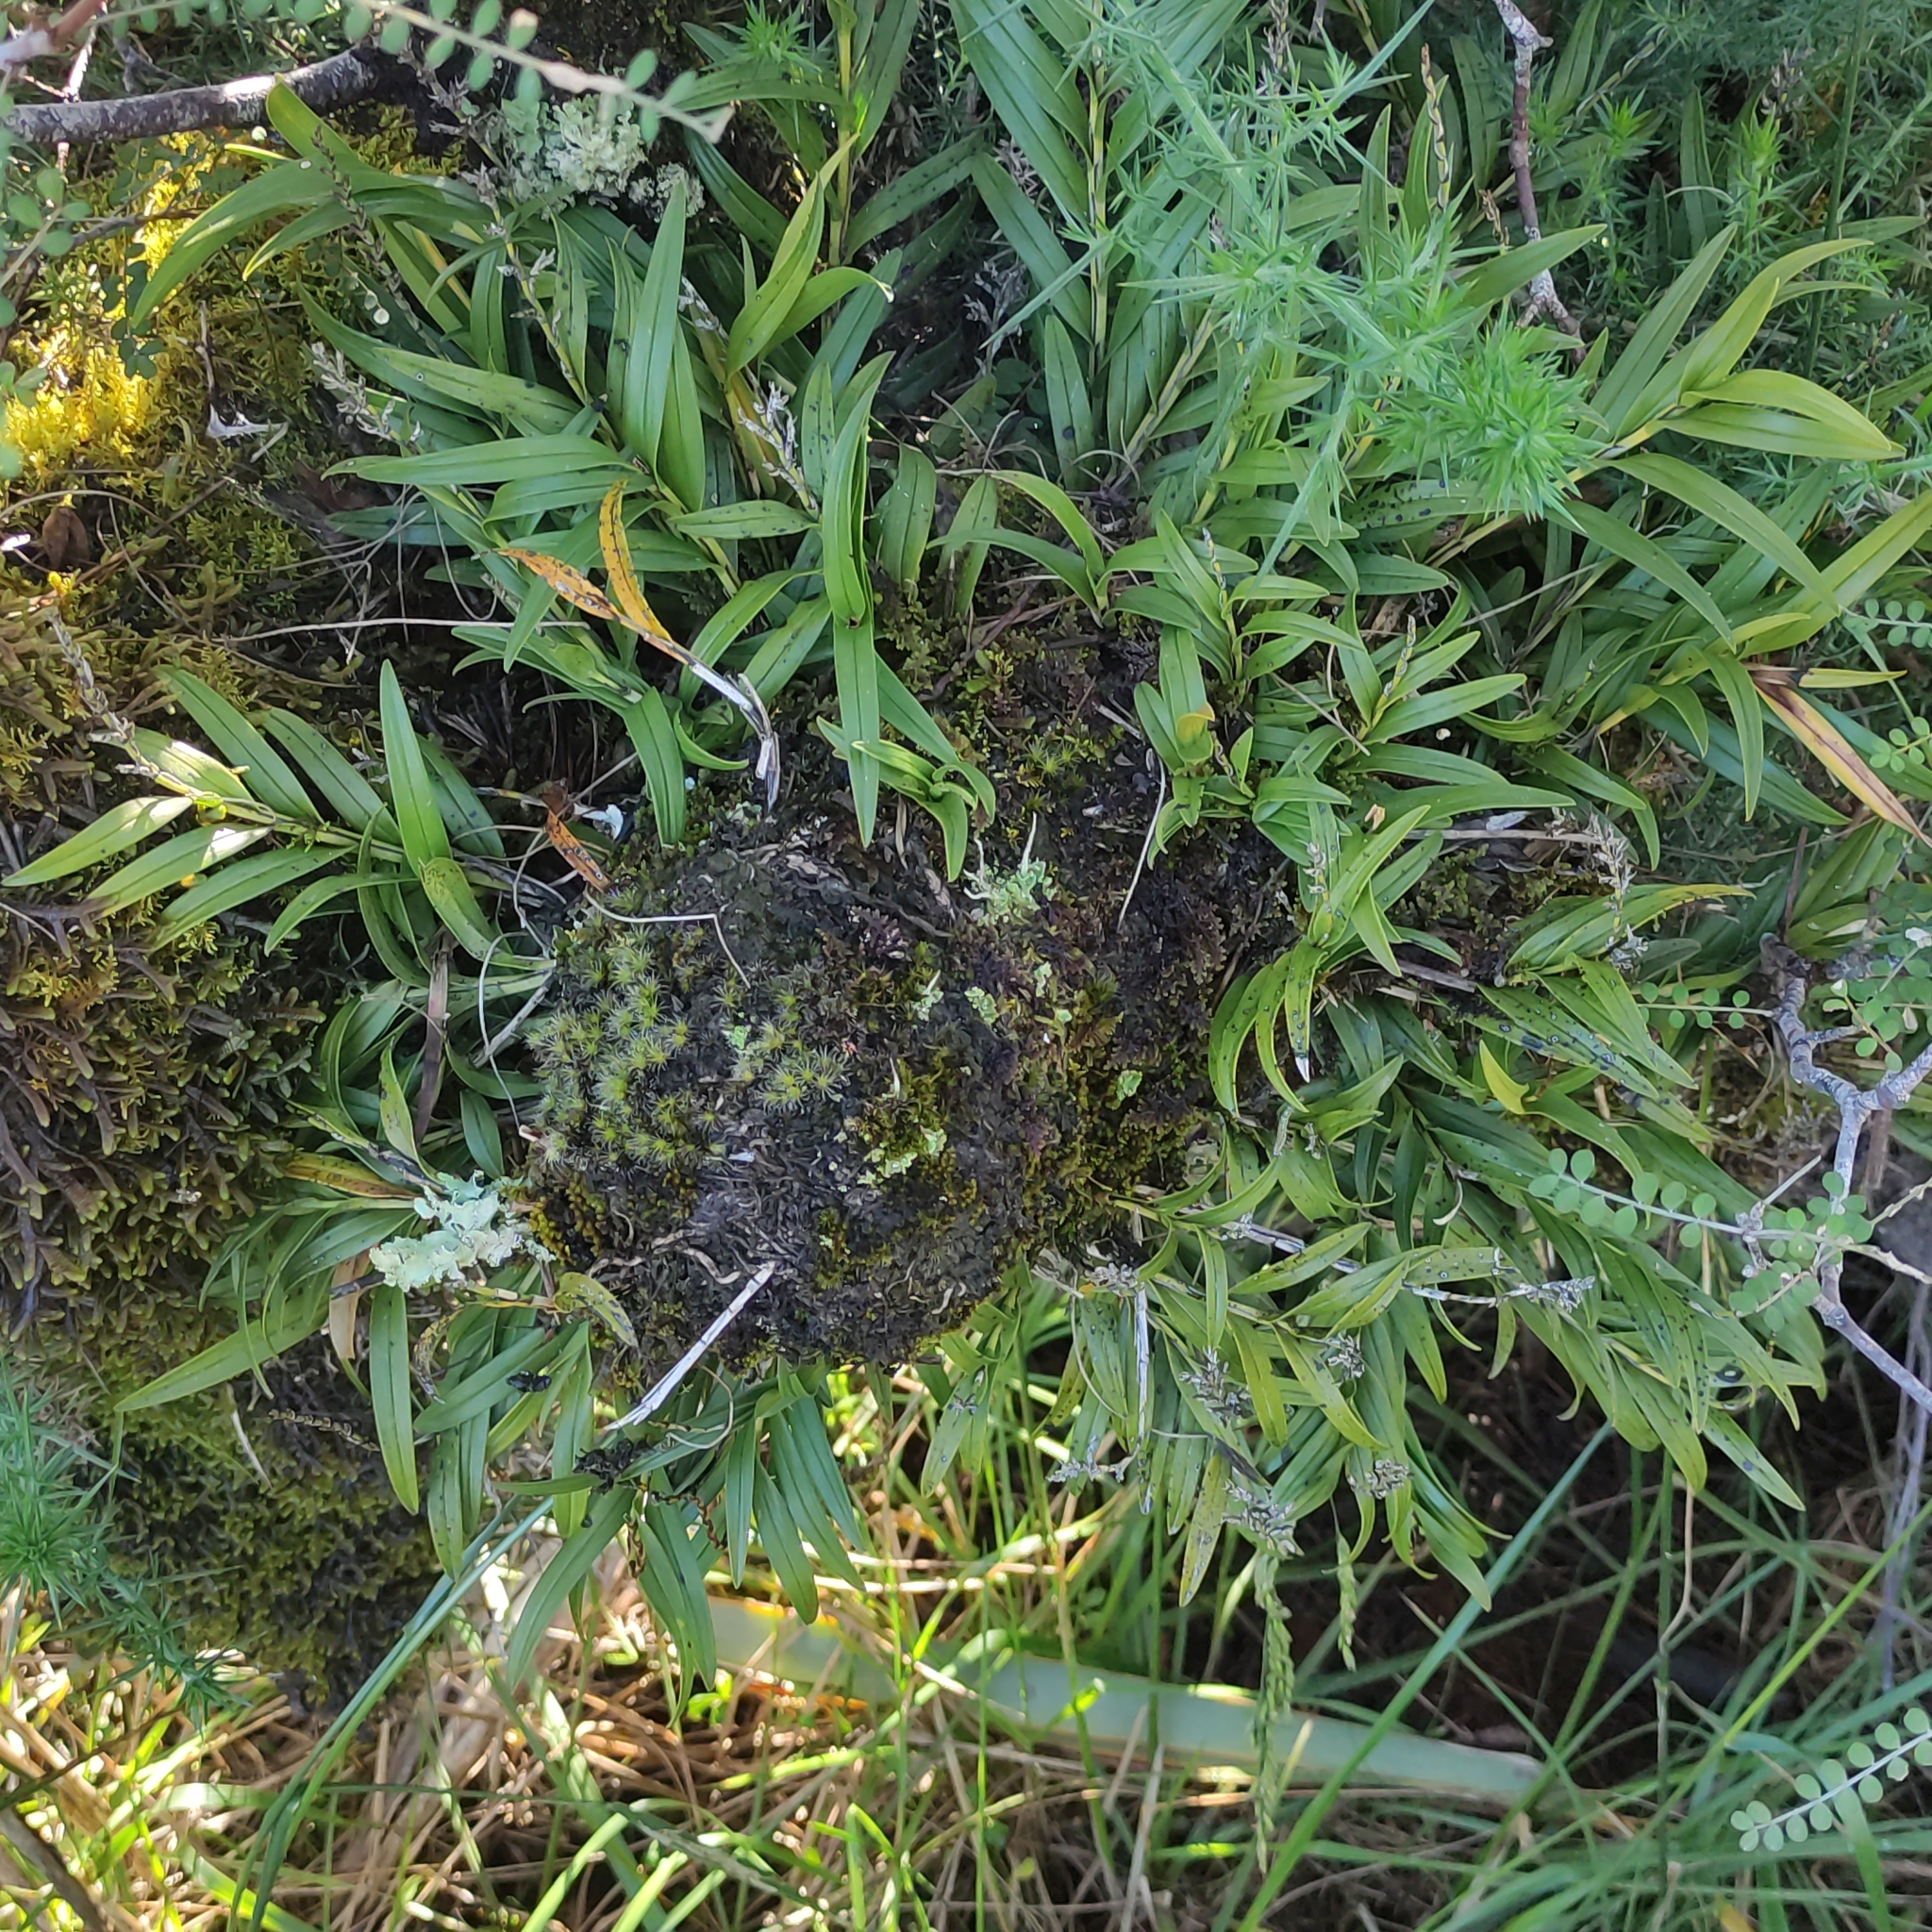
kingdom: Plantae
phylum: Tracheophyta
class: Liliopsida
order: Asparagales
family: Orchidaceae
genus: Earina
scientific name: Earina autumnalis
